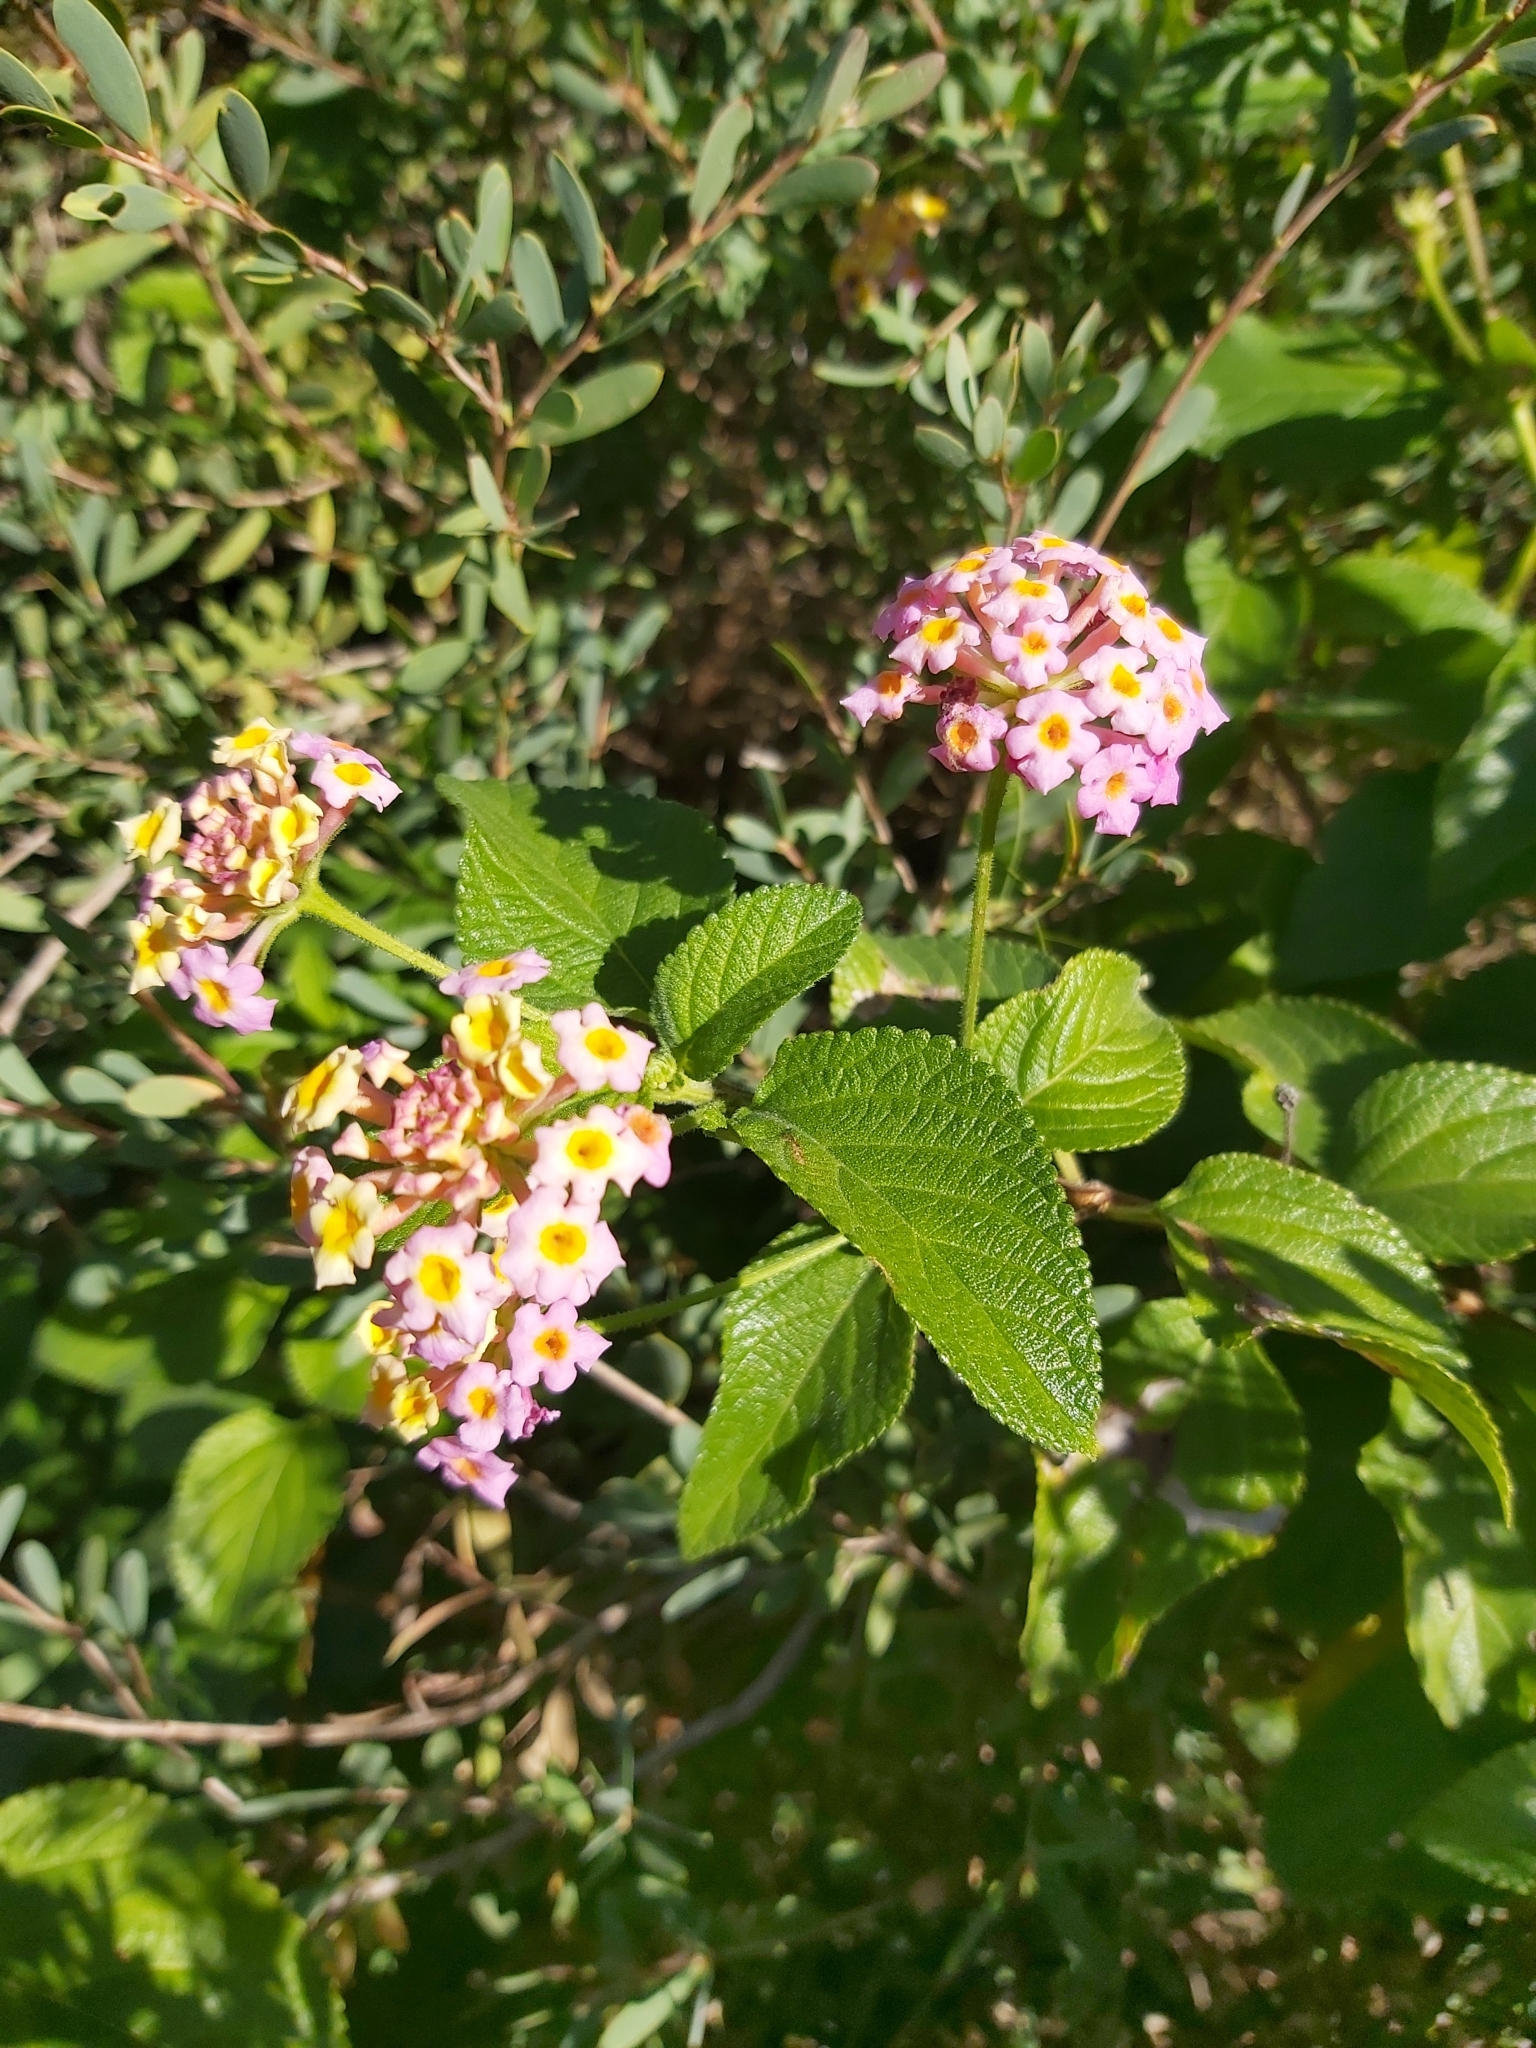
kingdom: Plantae
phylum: Tracheophyta
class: Magnoliopsida
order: Lamiales
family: Verbenaceae
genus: Lantana
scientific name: Lantana camara
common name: Lantana
